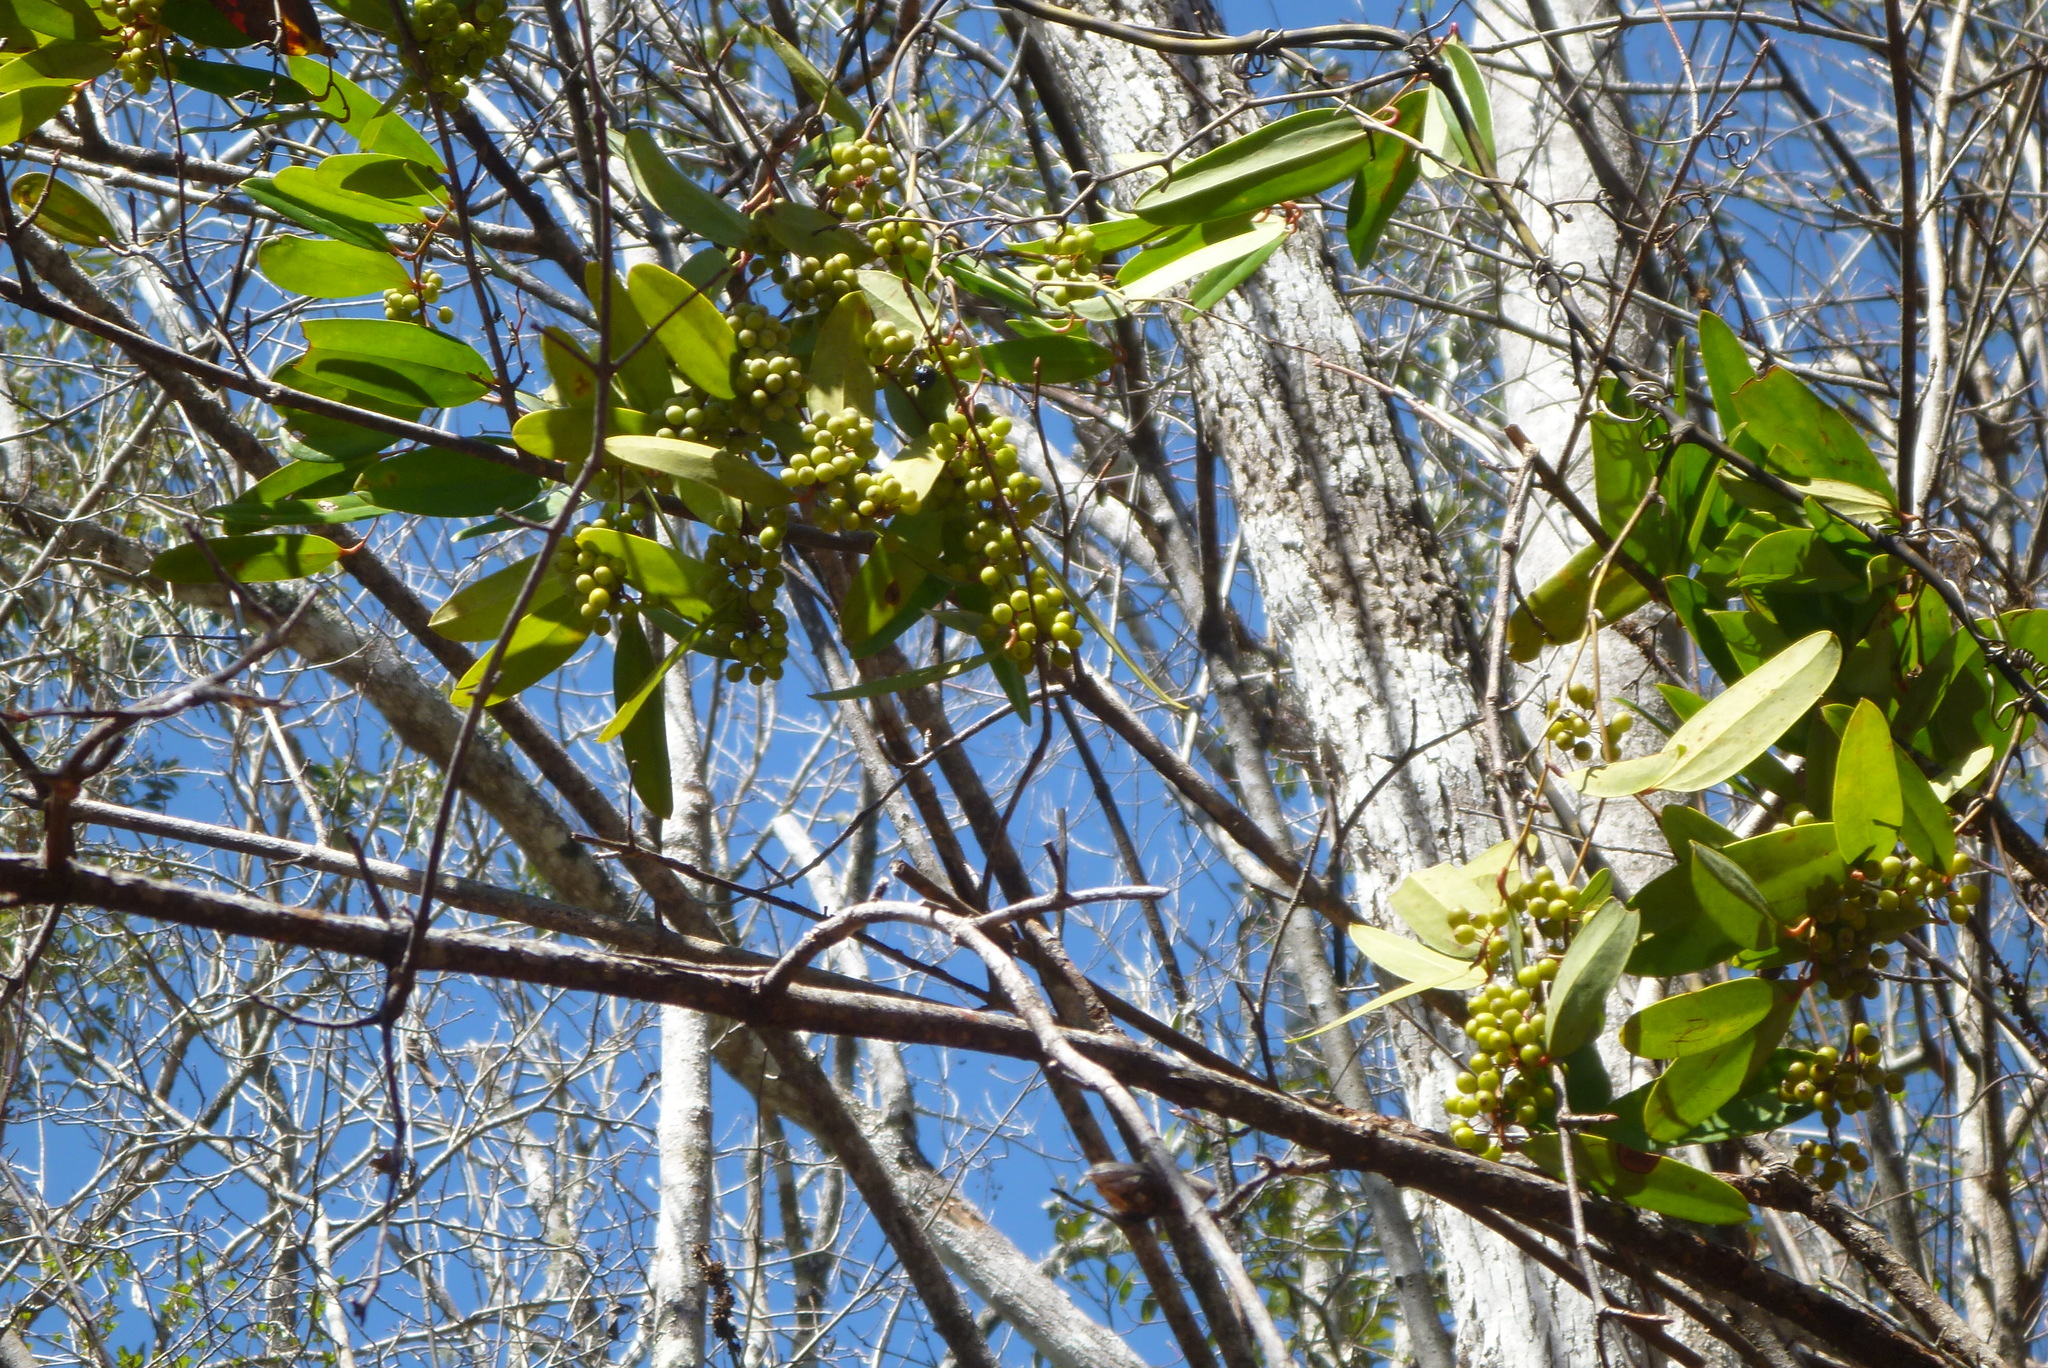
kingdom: Plantae
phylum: Tracheophyta
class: Liliopsida
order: Liliales
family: Smilacaceae
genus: Smilax
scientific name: Smilax laurifolia
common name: Bamboovine
